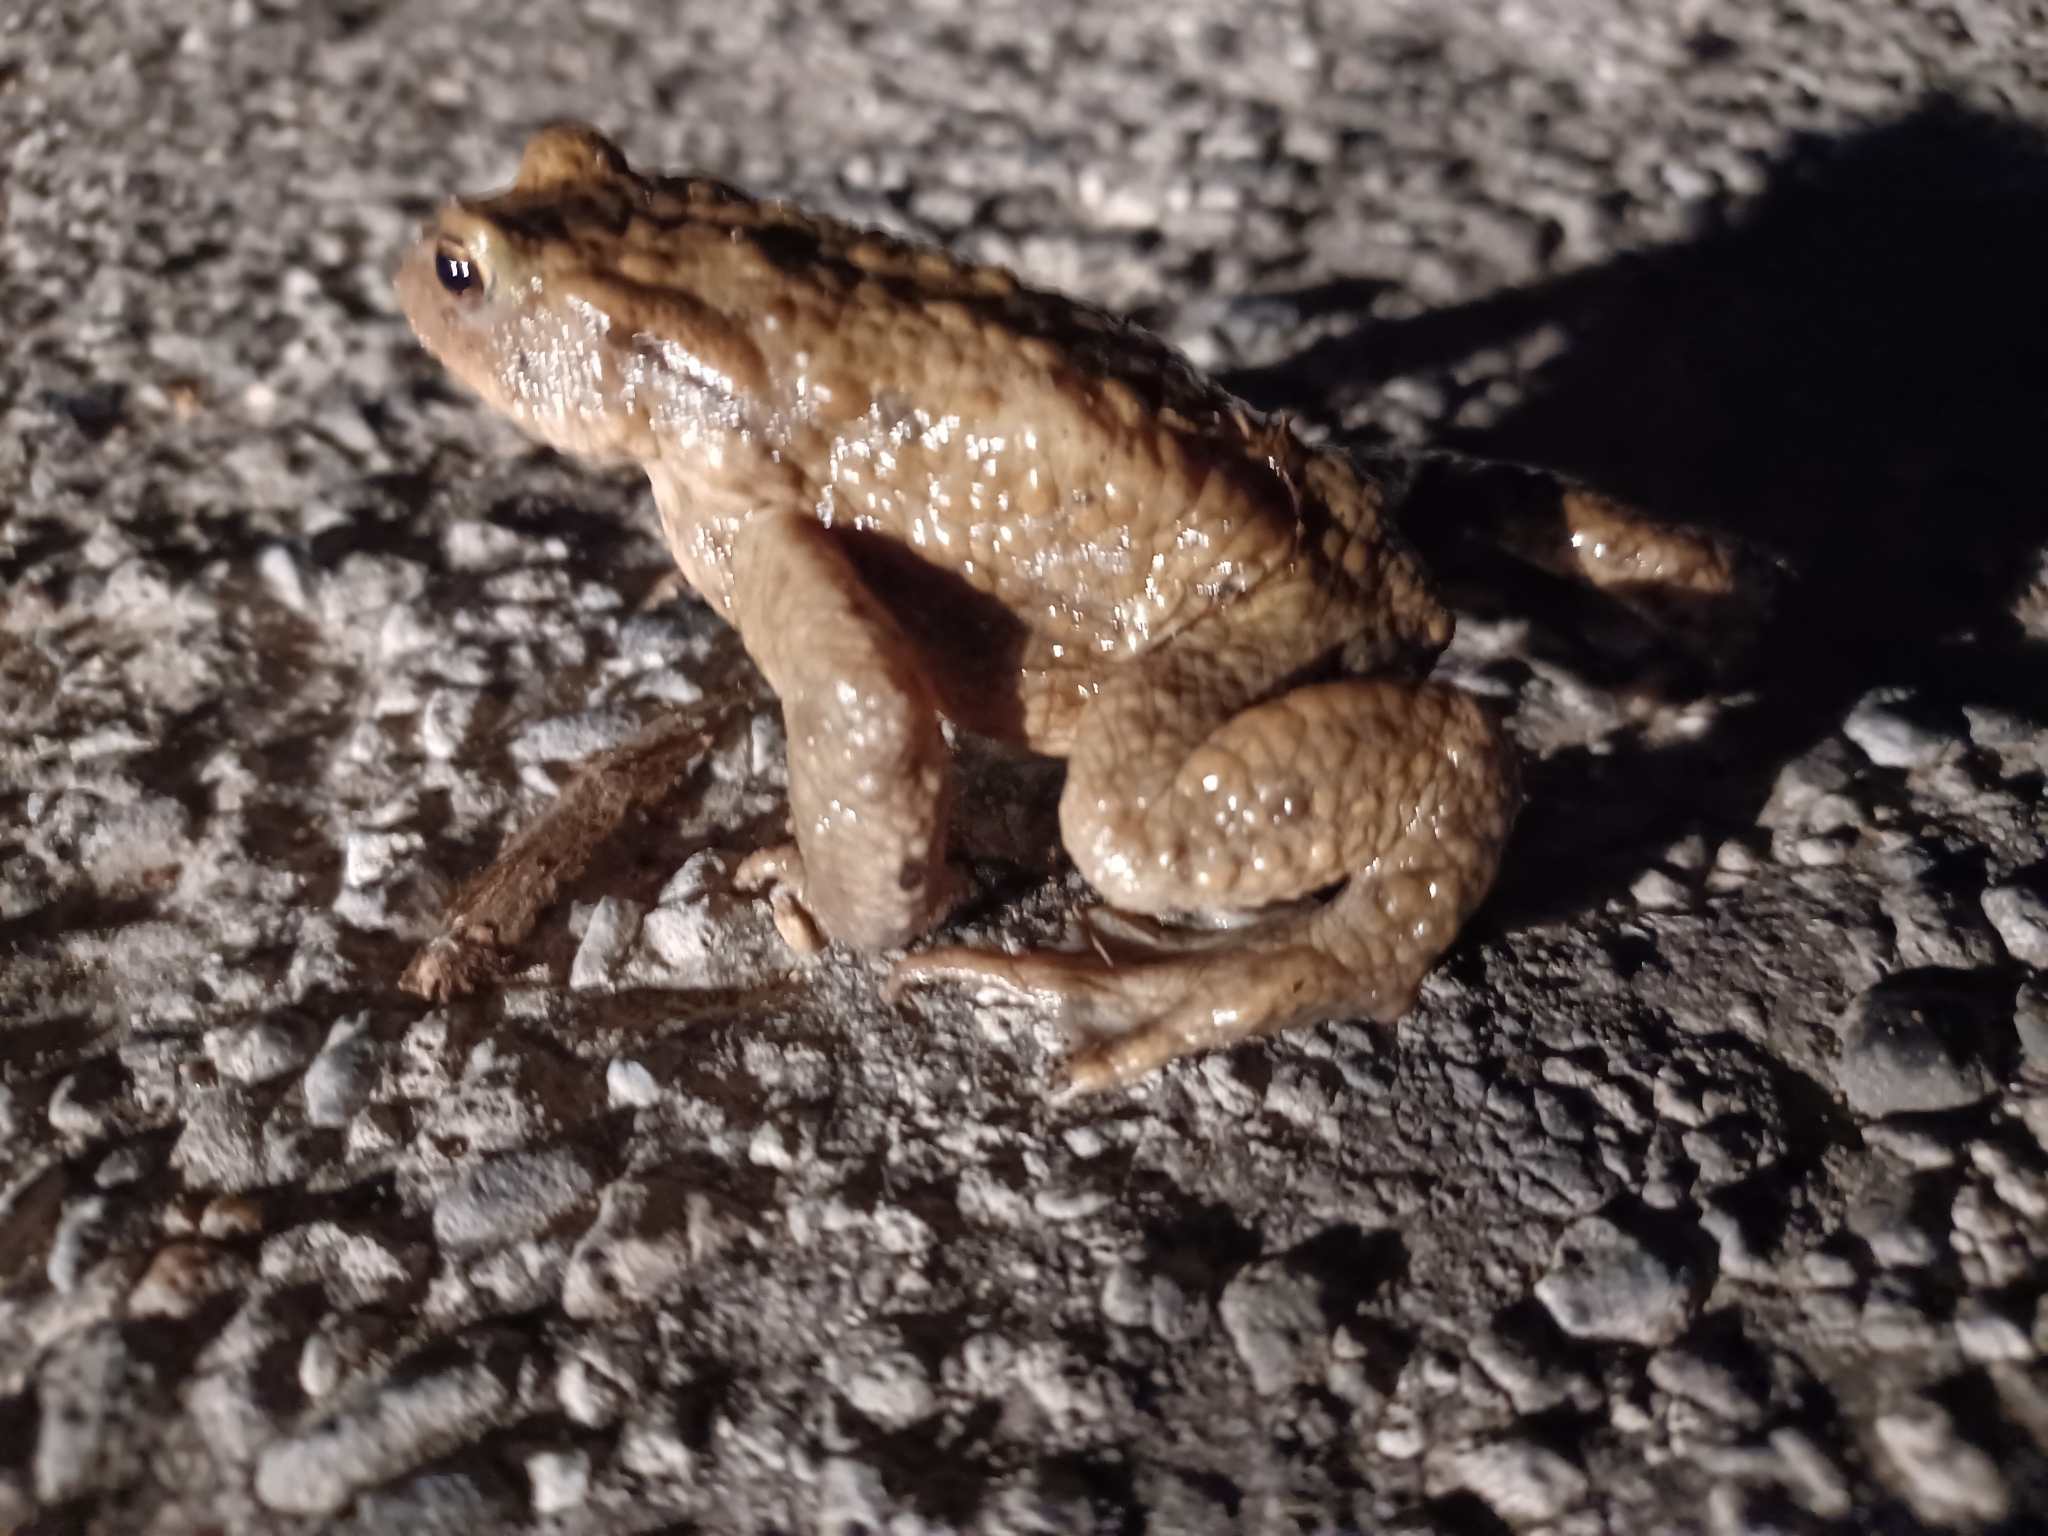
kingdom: Animalia
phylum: Chordata
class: Amphibia
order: Anura
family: Bufonidae
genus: Bufo
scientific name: Bufo bufo
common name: Common toad
